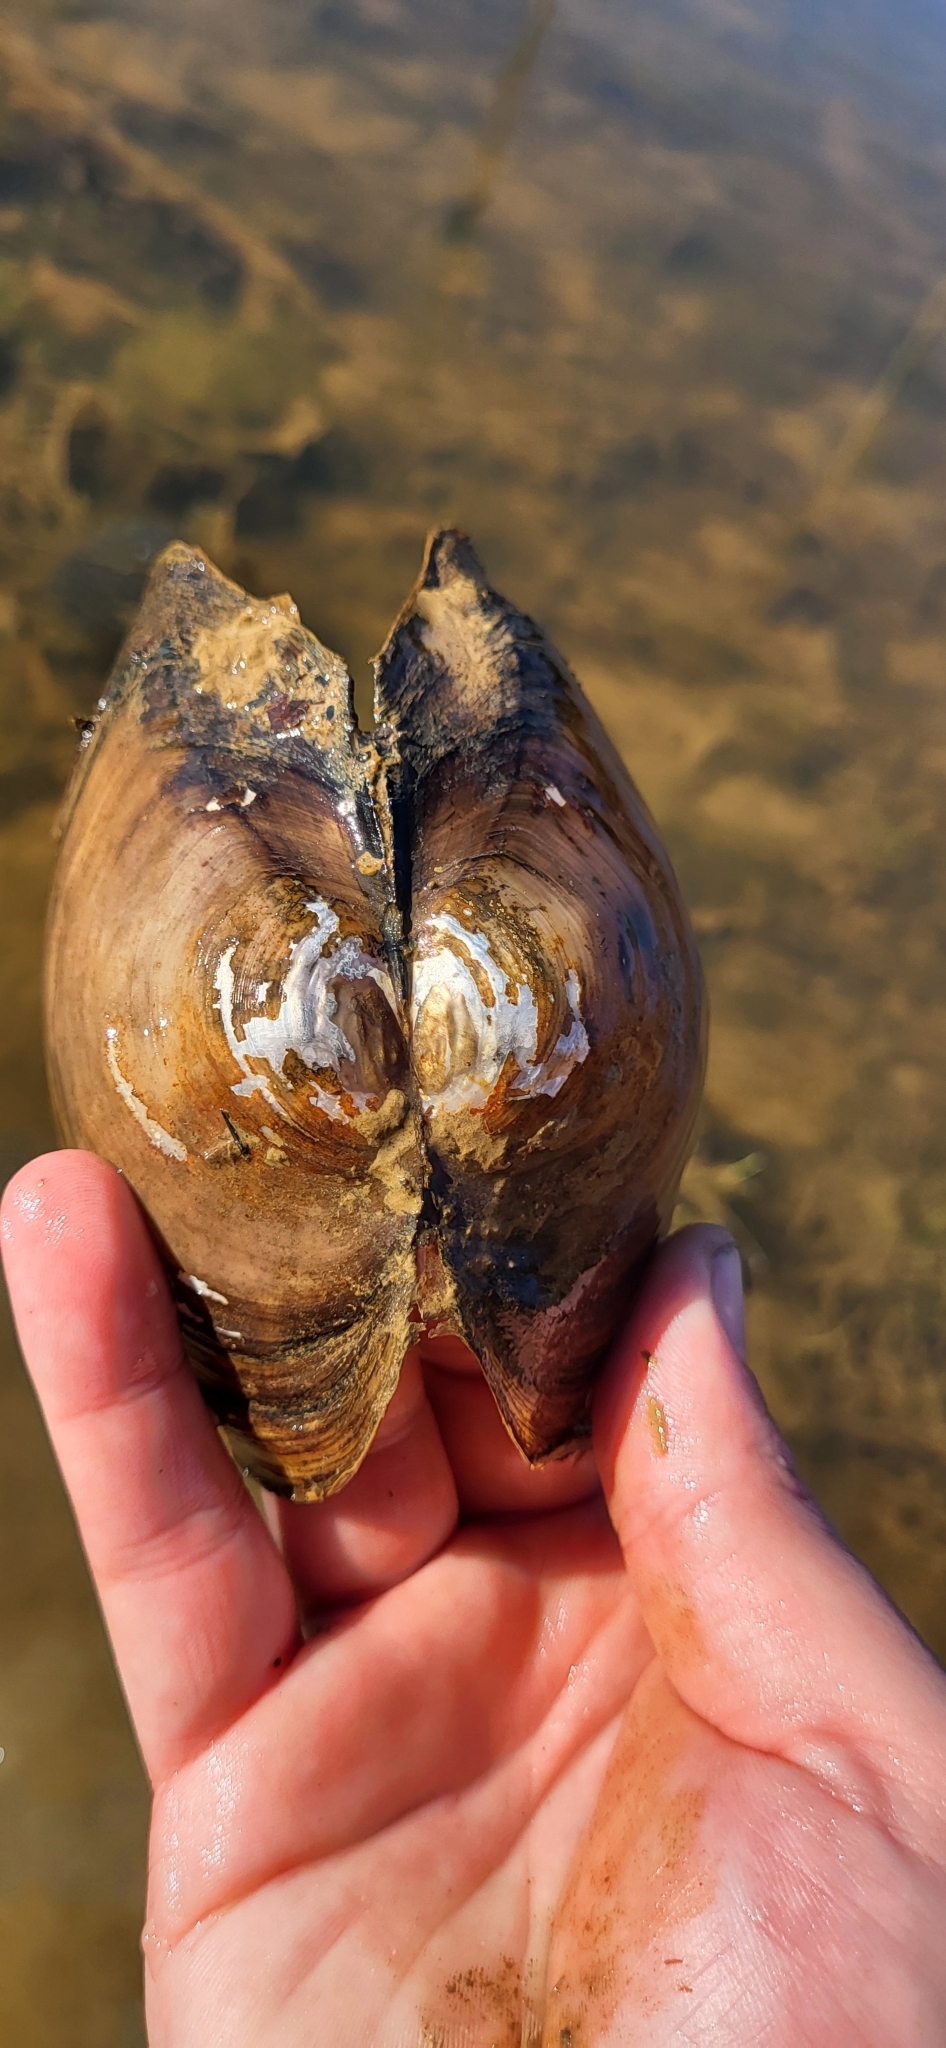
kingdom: Animalia
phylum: Mollusca
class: Bivalvia
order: Unionida
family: Unionidae
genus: Utterbackiana
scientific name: Utterbackiana suborbiculata
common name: Flat floater
